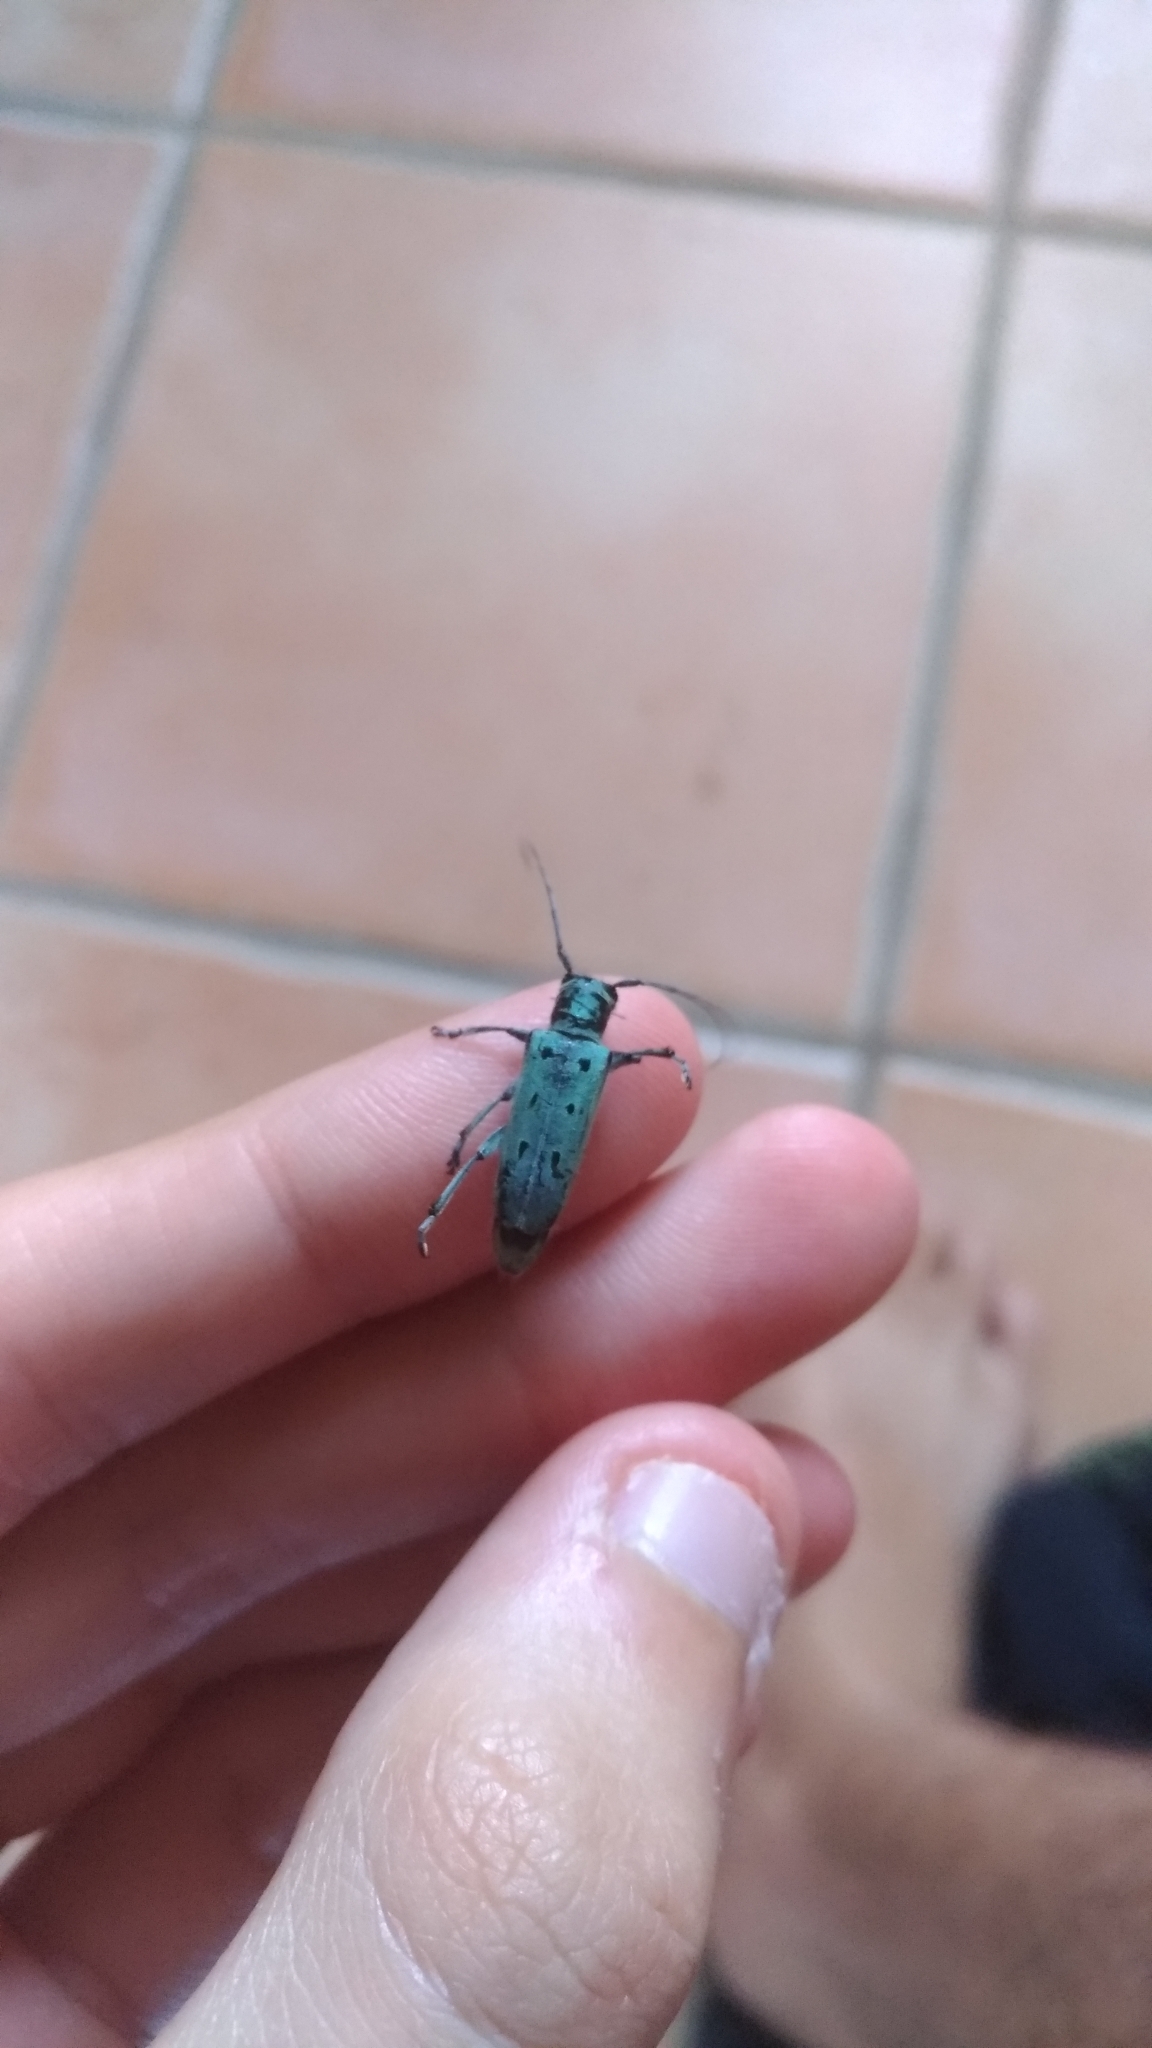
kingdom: Animalia
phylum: Arthropoda
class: Insecta
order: Coleoptera
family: Cerambycidae
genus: Saperda
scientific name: Saperda octopunctata
